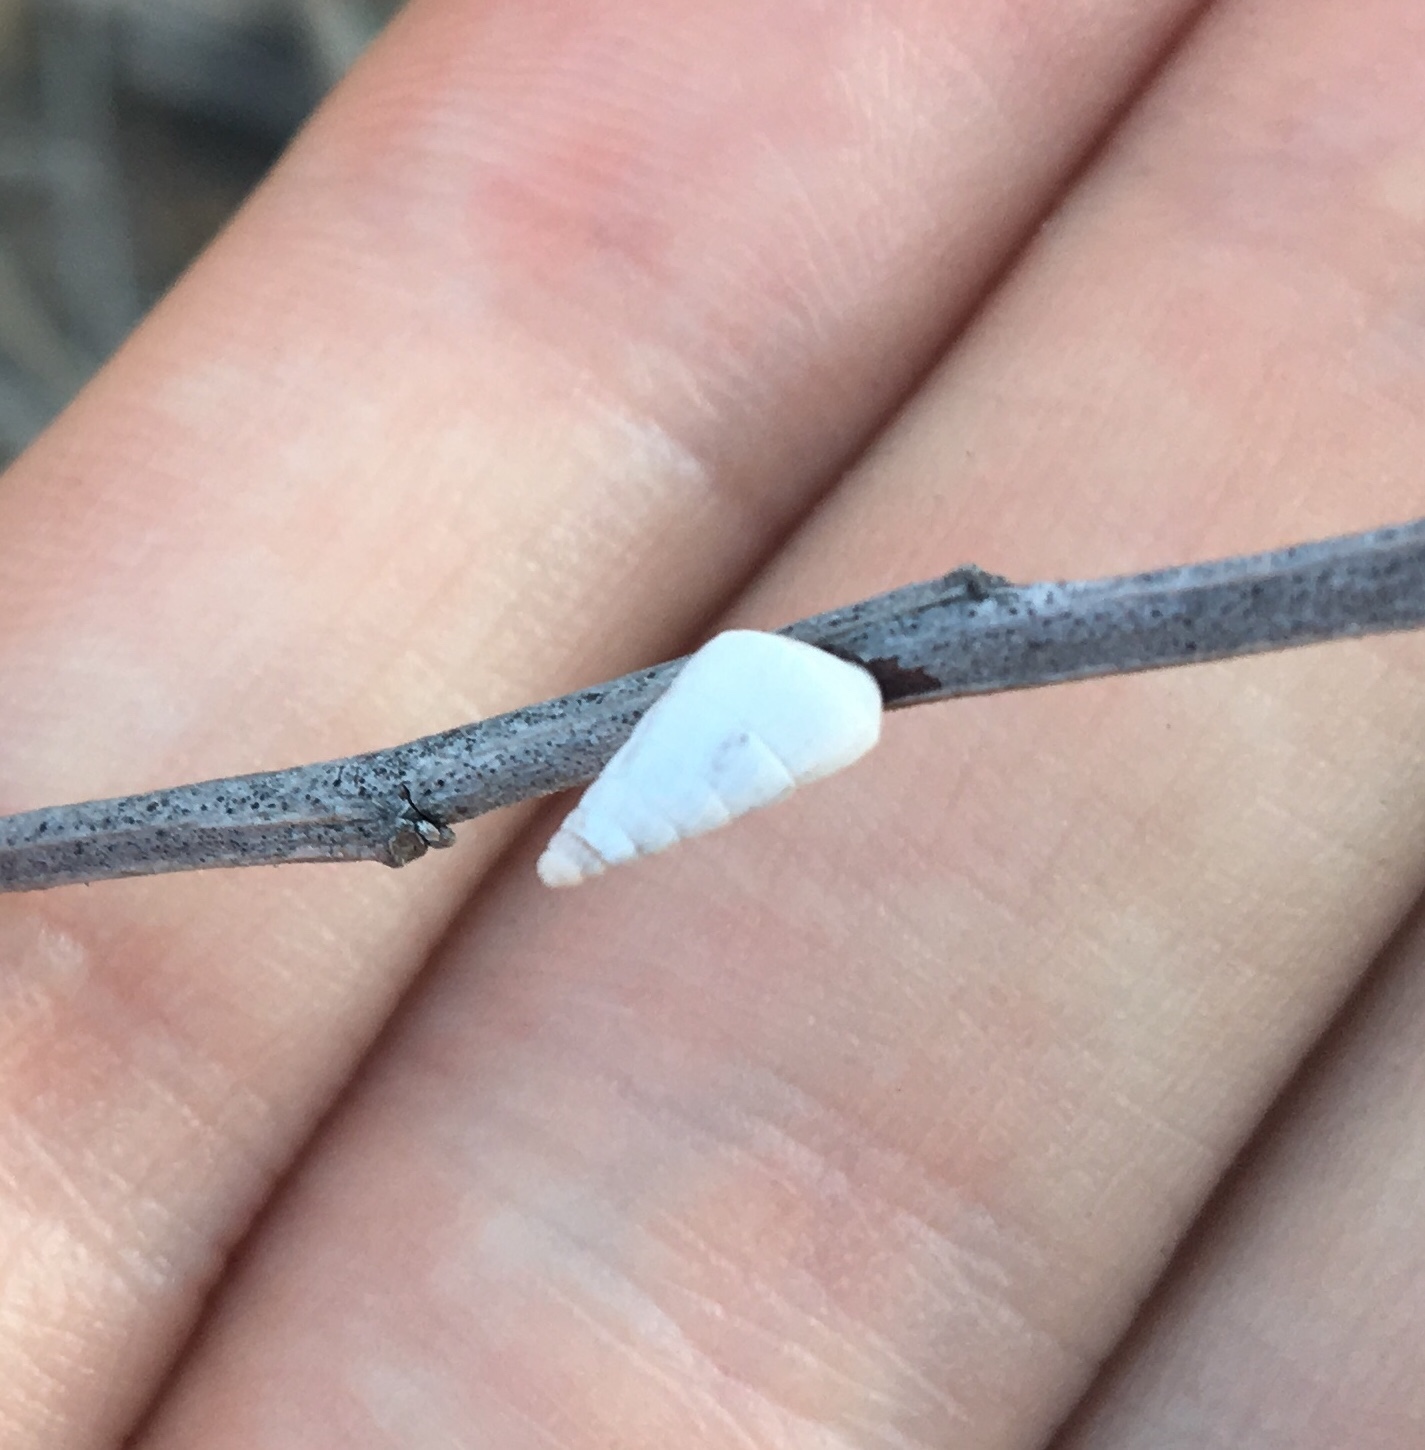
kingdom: Animalia
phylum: Mollusca
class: Gastropoda
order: Stylommatophora
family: Geomitridae
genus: Cochlicella
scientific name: Cochlicella acuta
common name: Pointed snail
